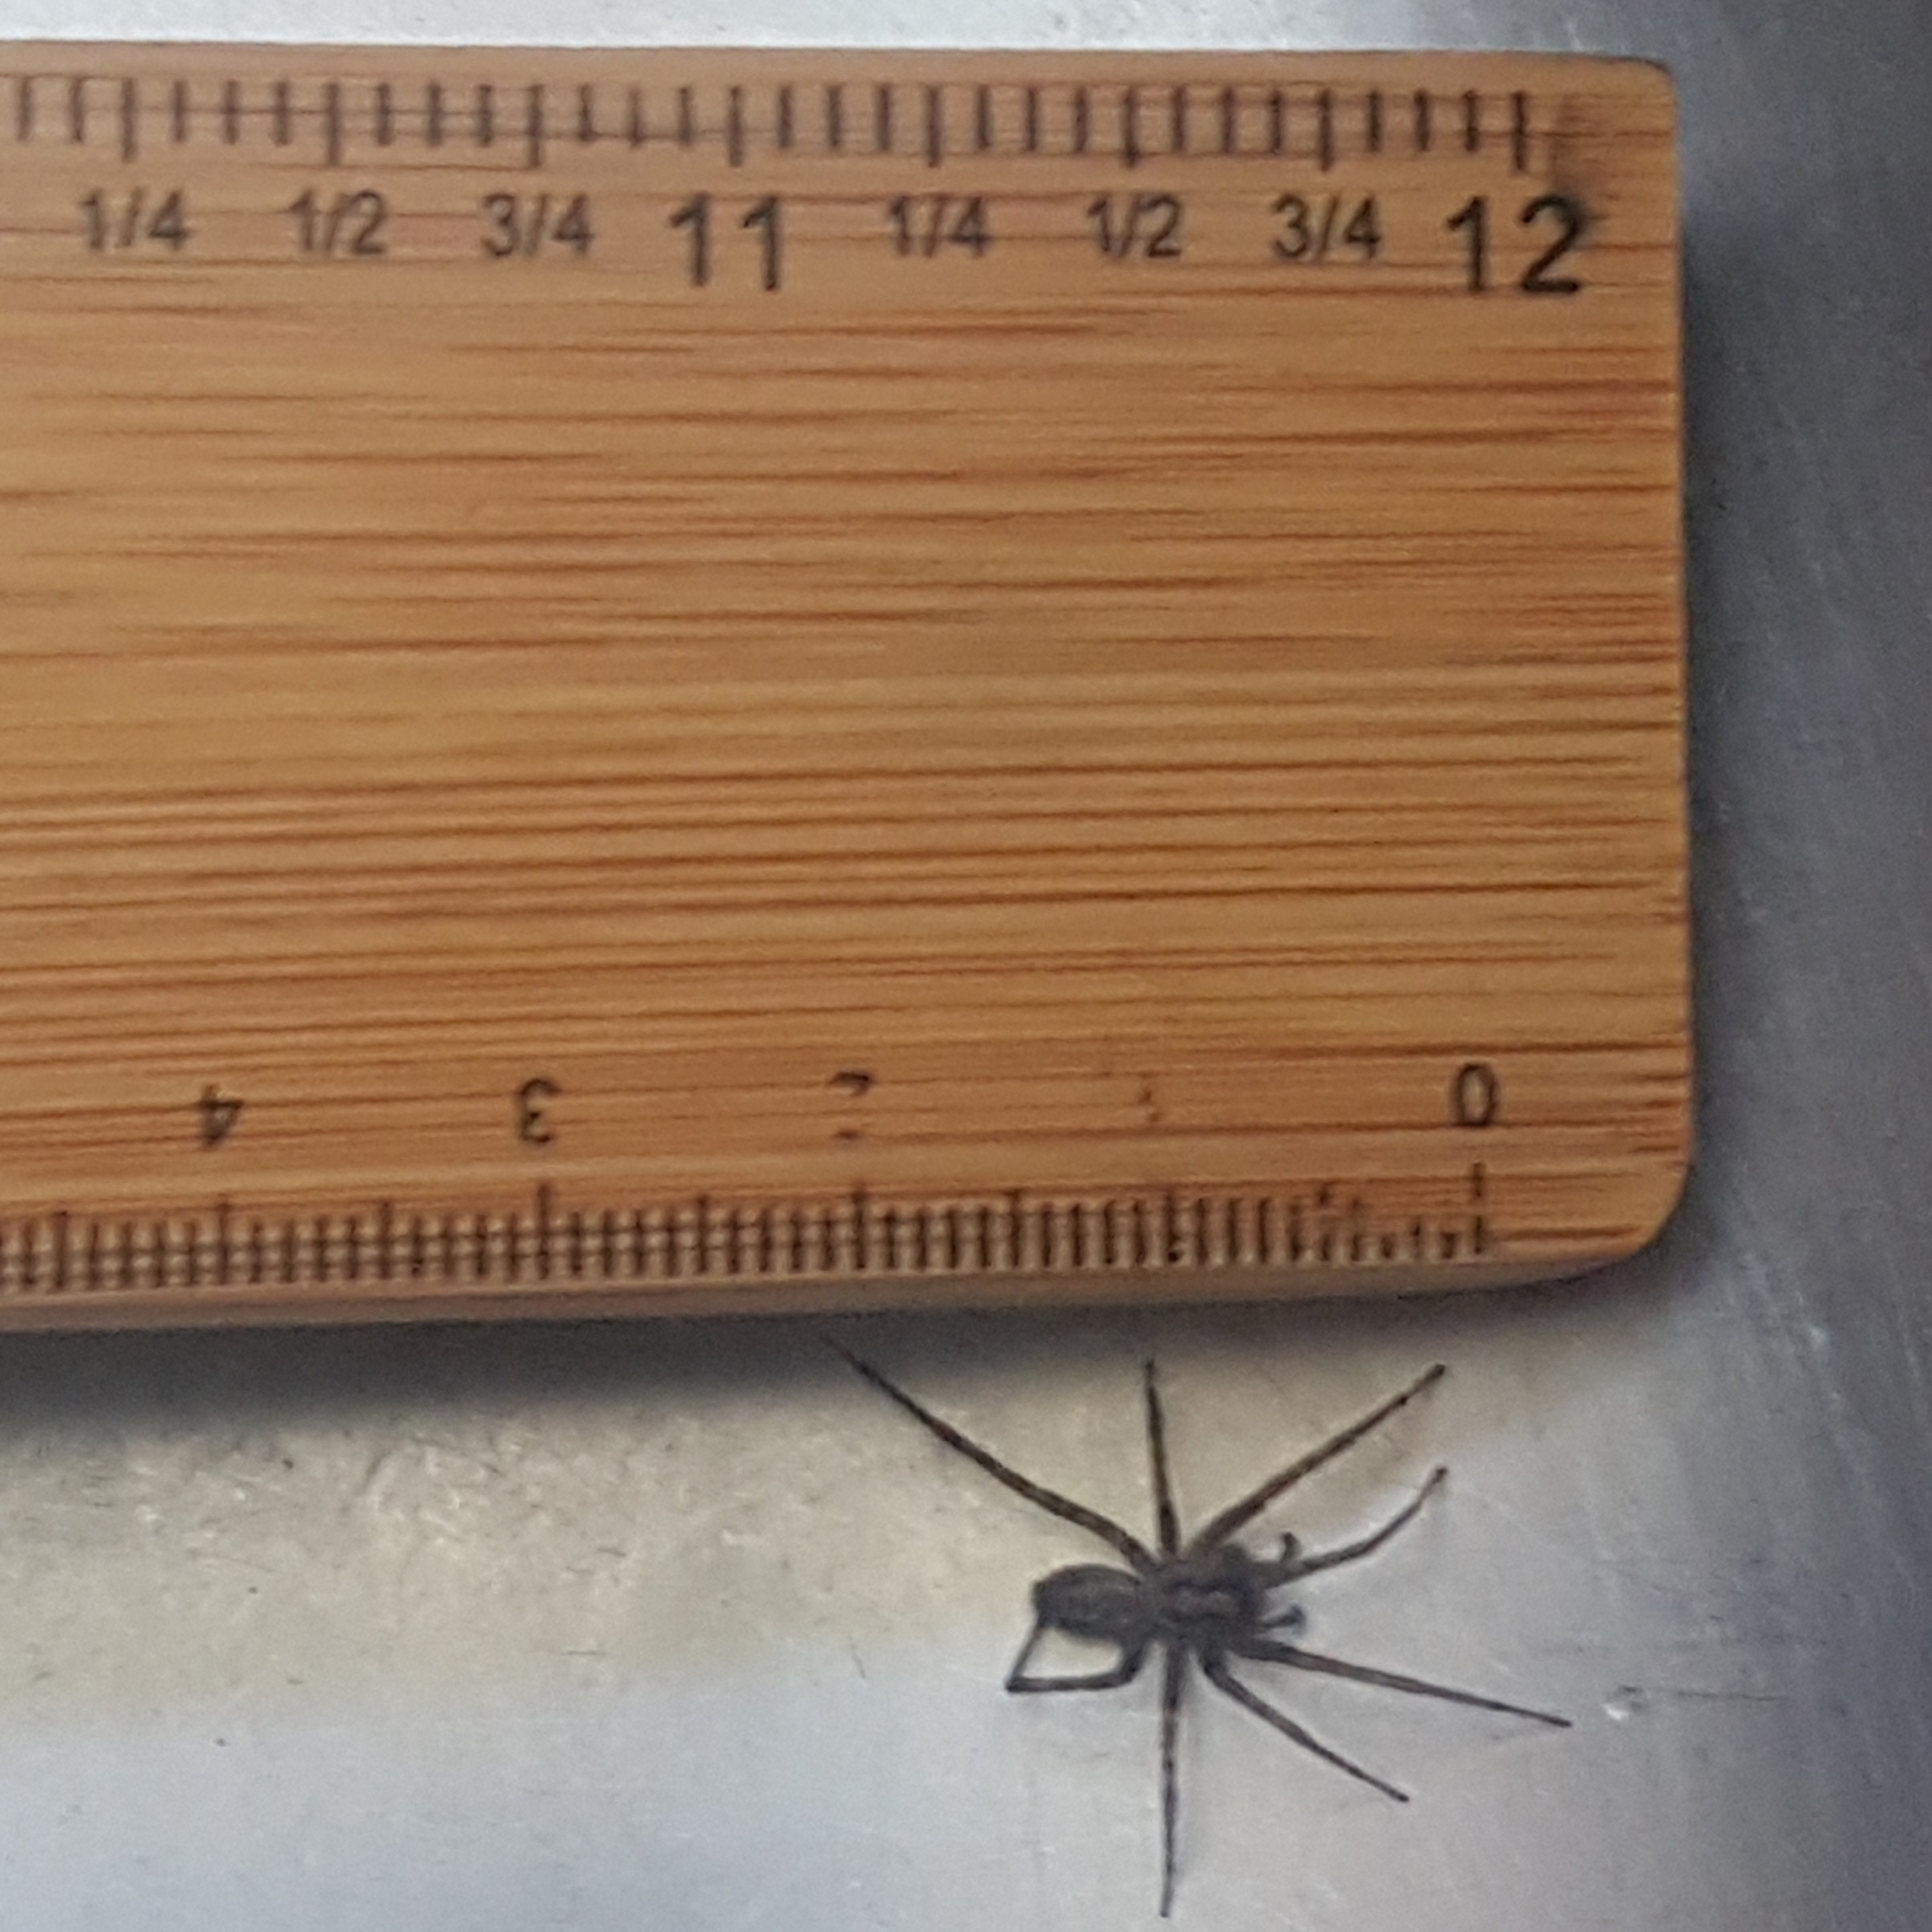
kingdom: Animalia
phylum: Arthropoda
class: Arachnida
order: Araneae
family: Agelenidae
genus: Tegenaria
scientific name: Tegenaria domestica
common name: Barn funnel weaver
